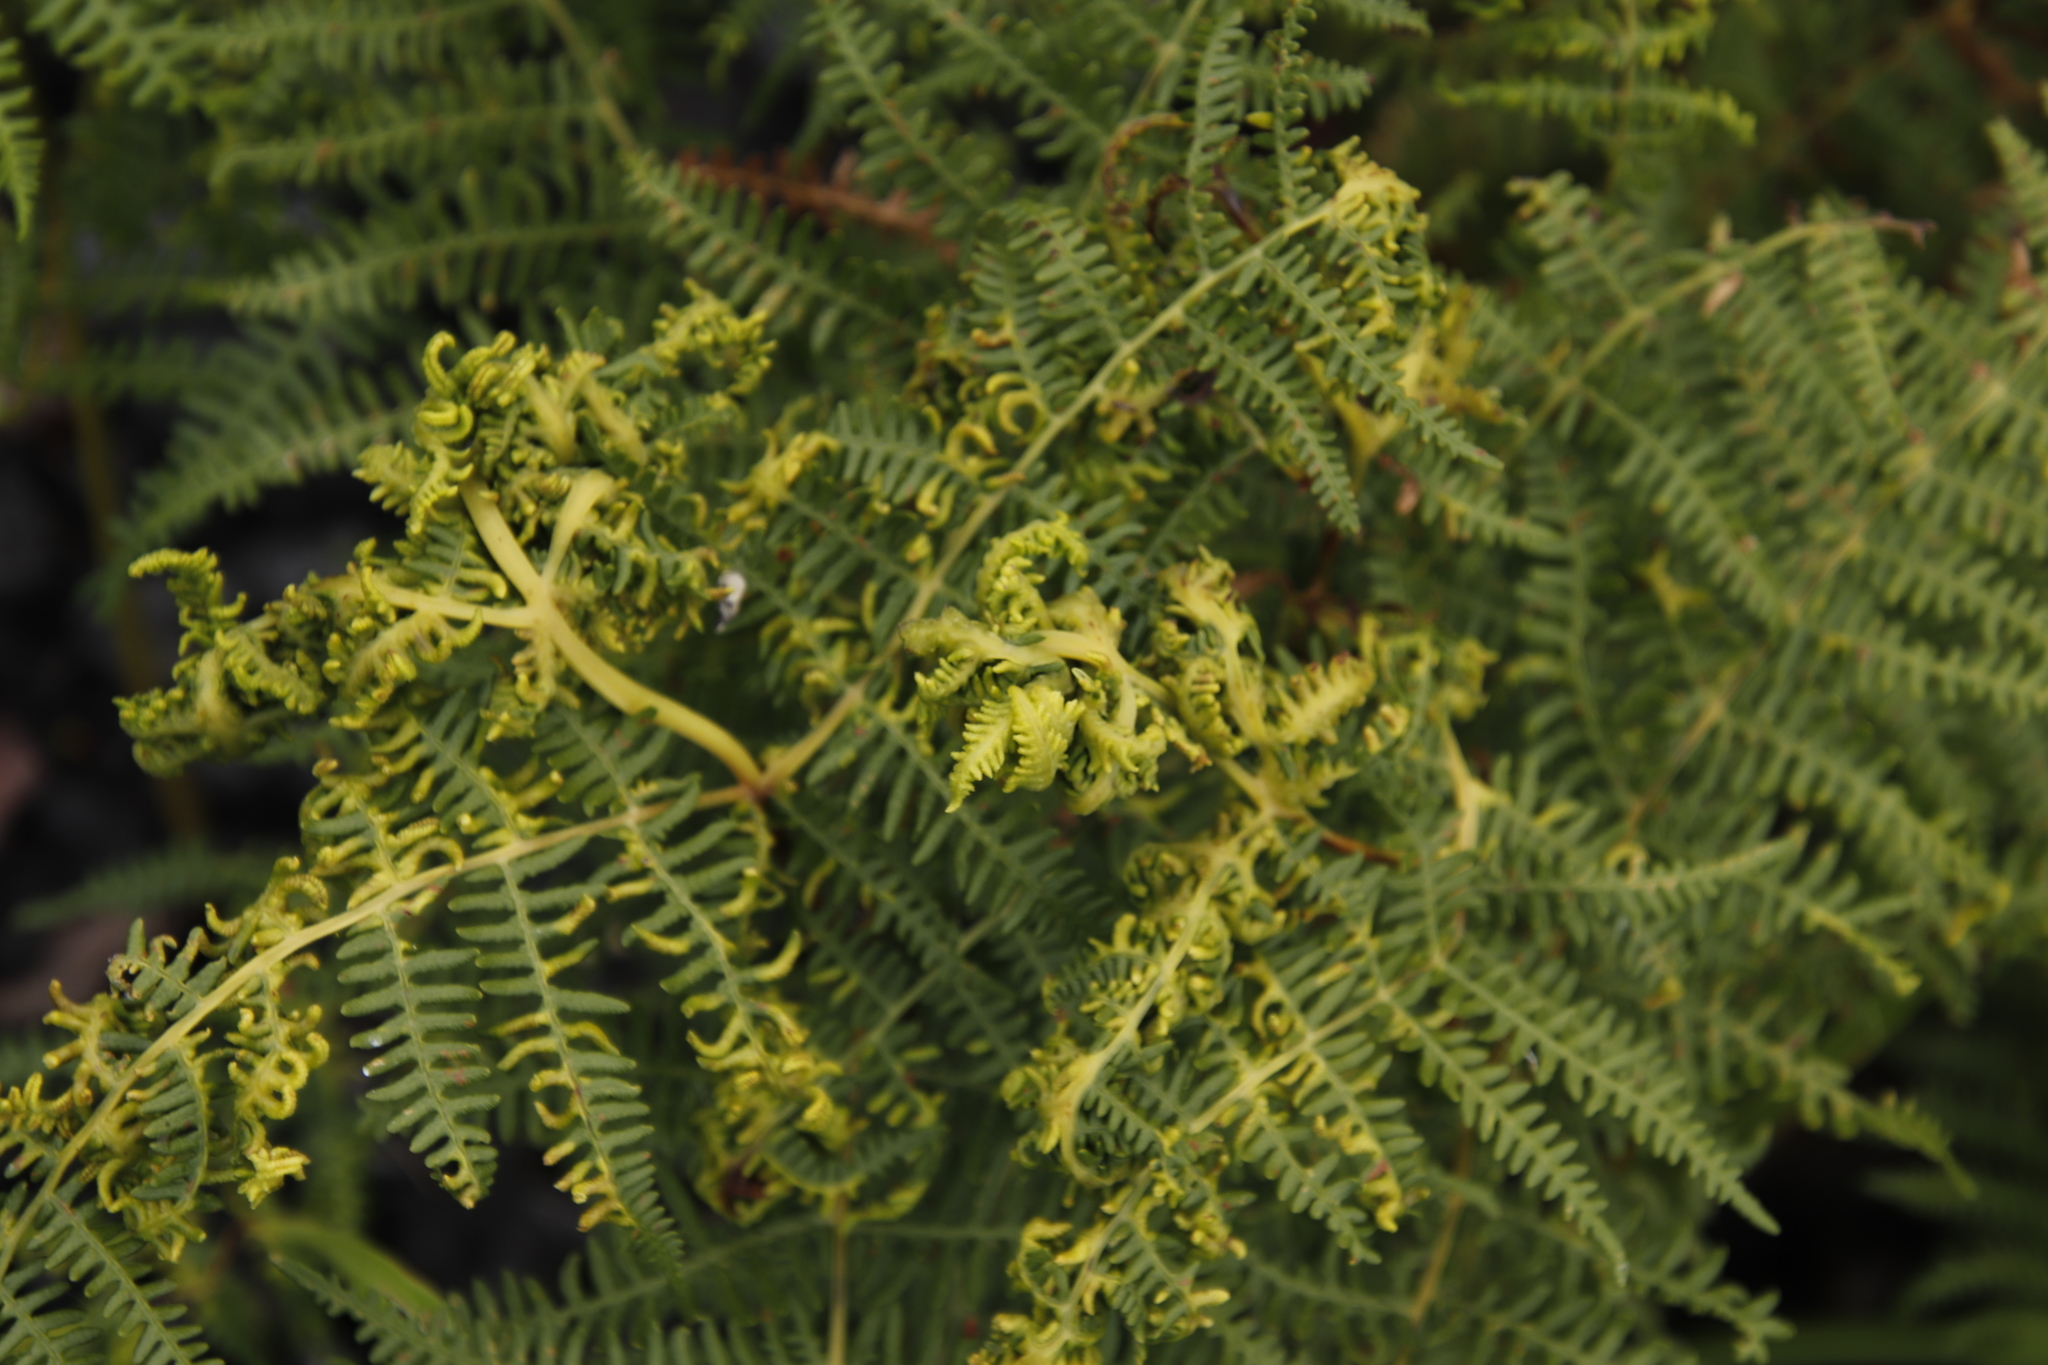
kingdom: Plantae
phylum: Tracheophyta
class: Polypodiopsida
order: Polypodiales
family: Dennstaedtiaceae
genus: Pteridium
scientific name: Pteridium aquilinum
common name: Bracken
